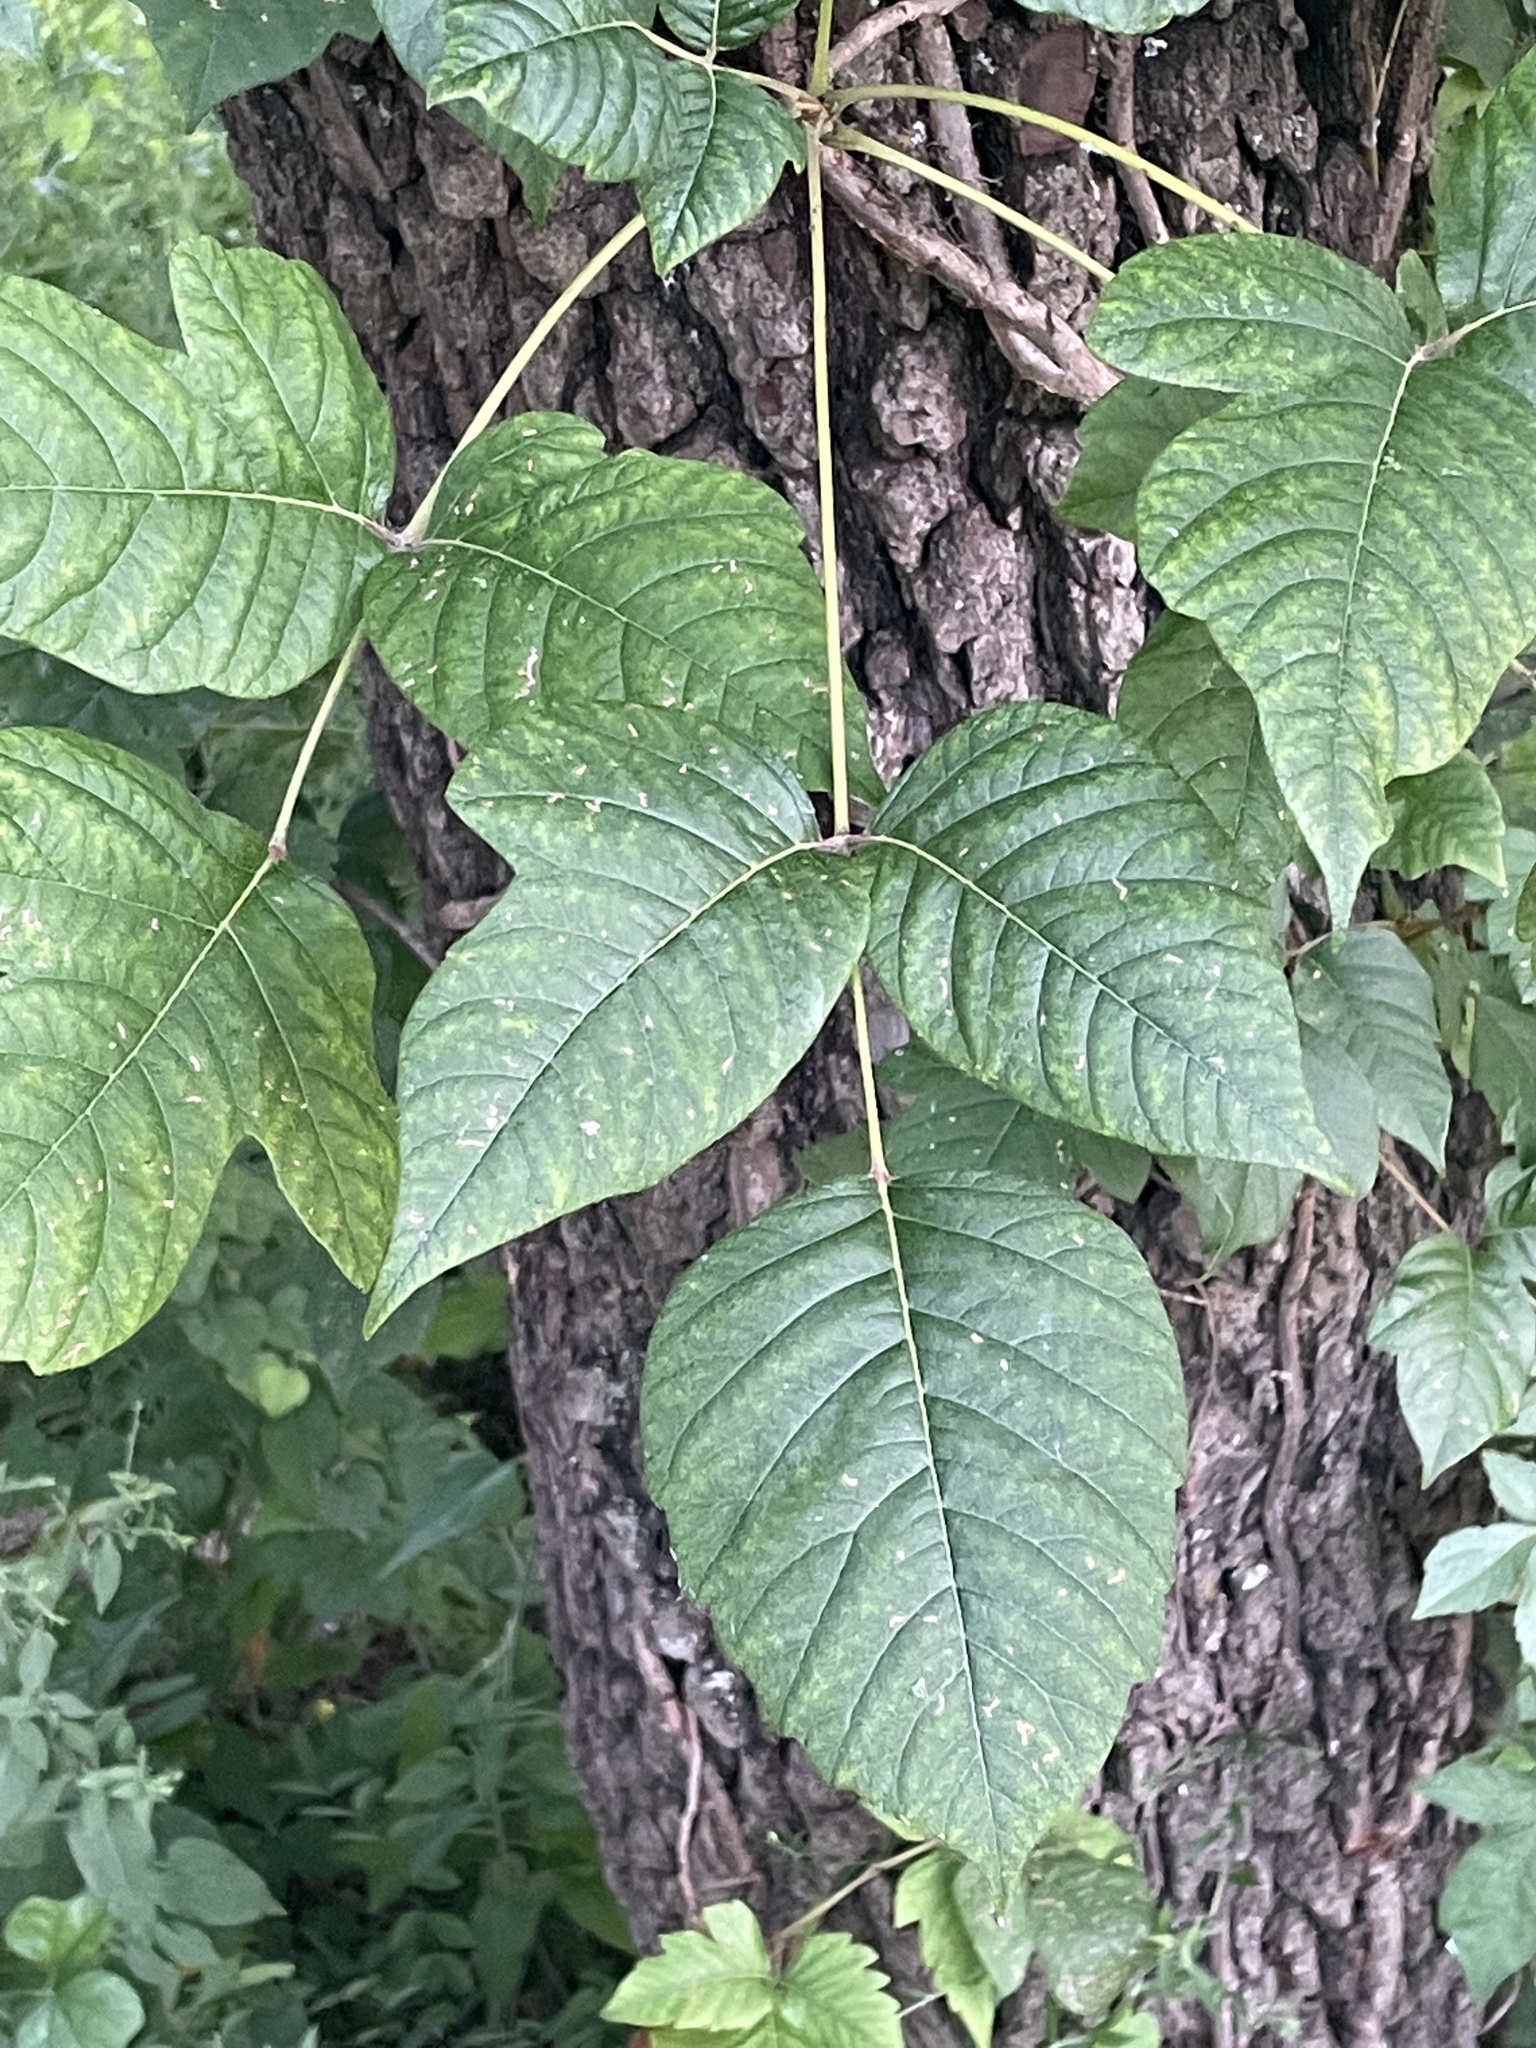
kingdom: Plantae
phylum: Tracheophyta
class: Magnoliopsida
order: Sapindales
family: Anacardiaceae
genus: Toxicodendron
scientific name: Toxicodendron radicans
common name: Poison ivy
